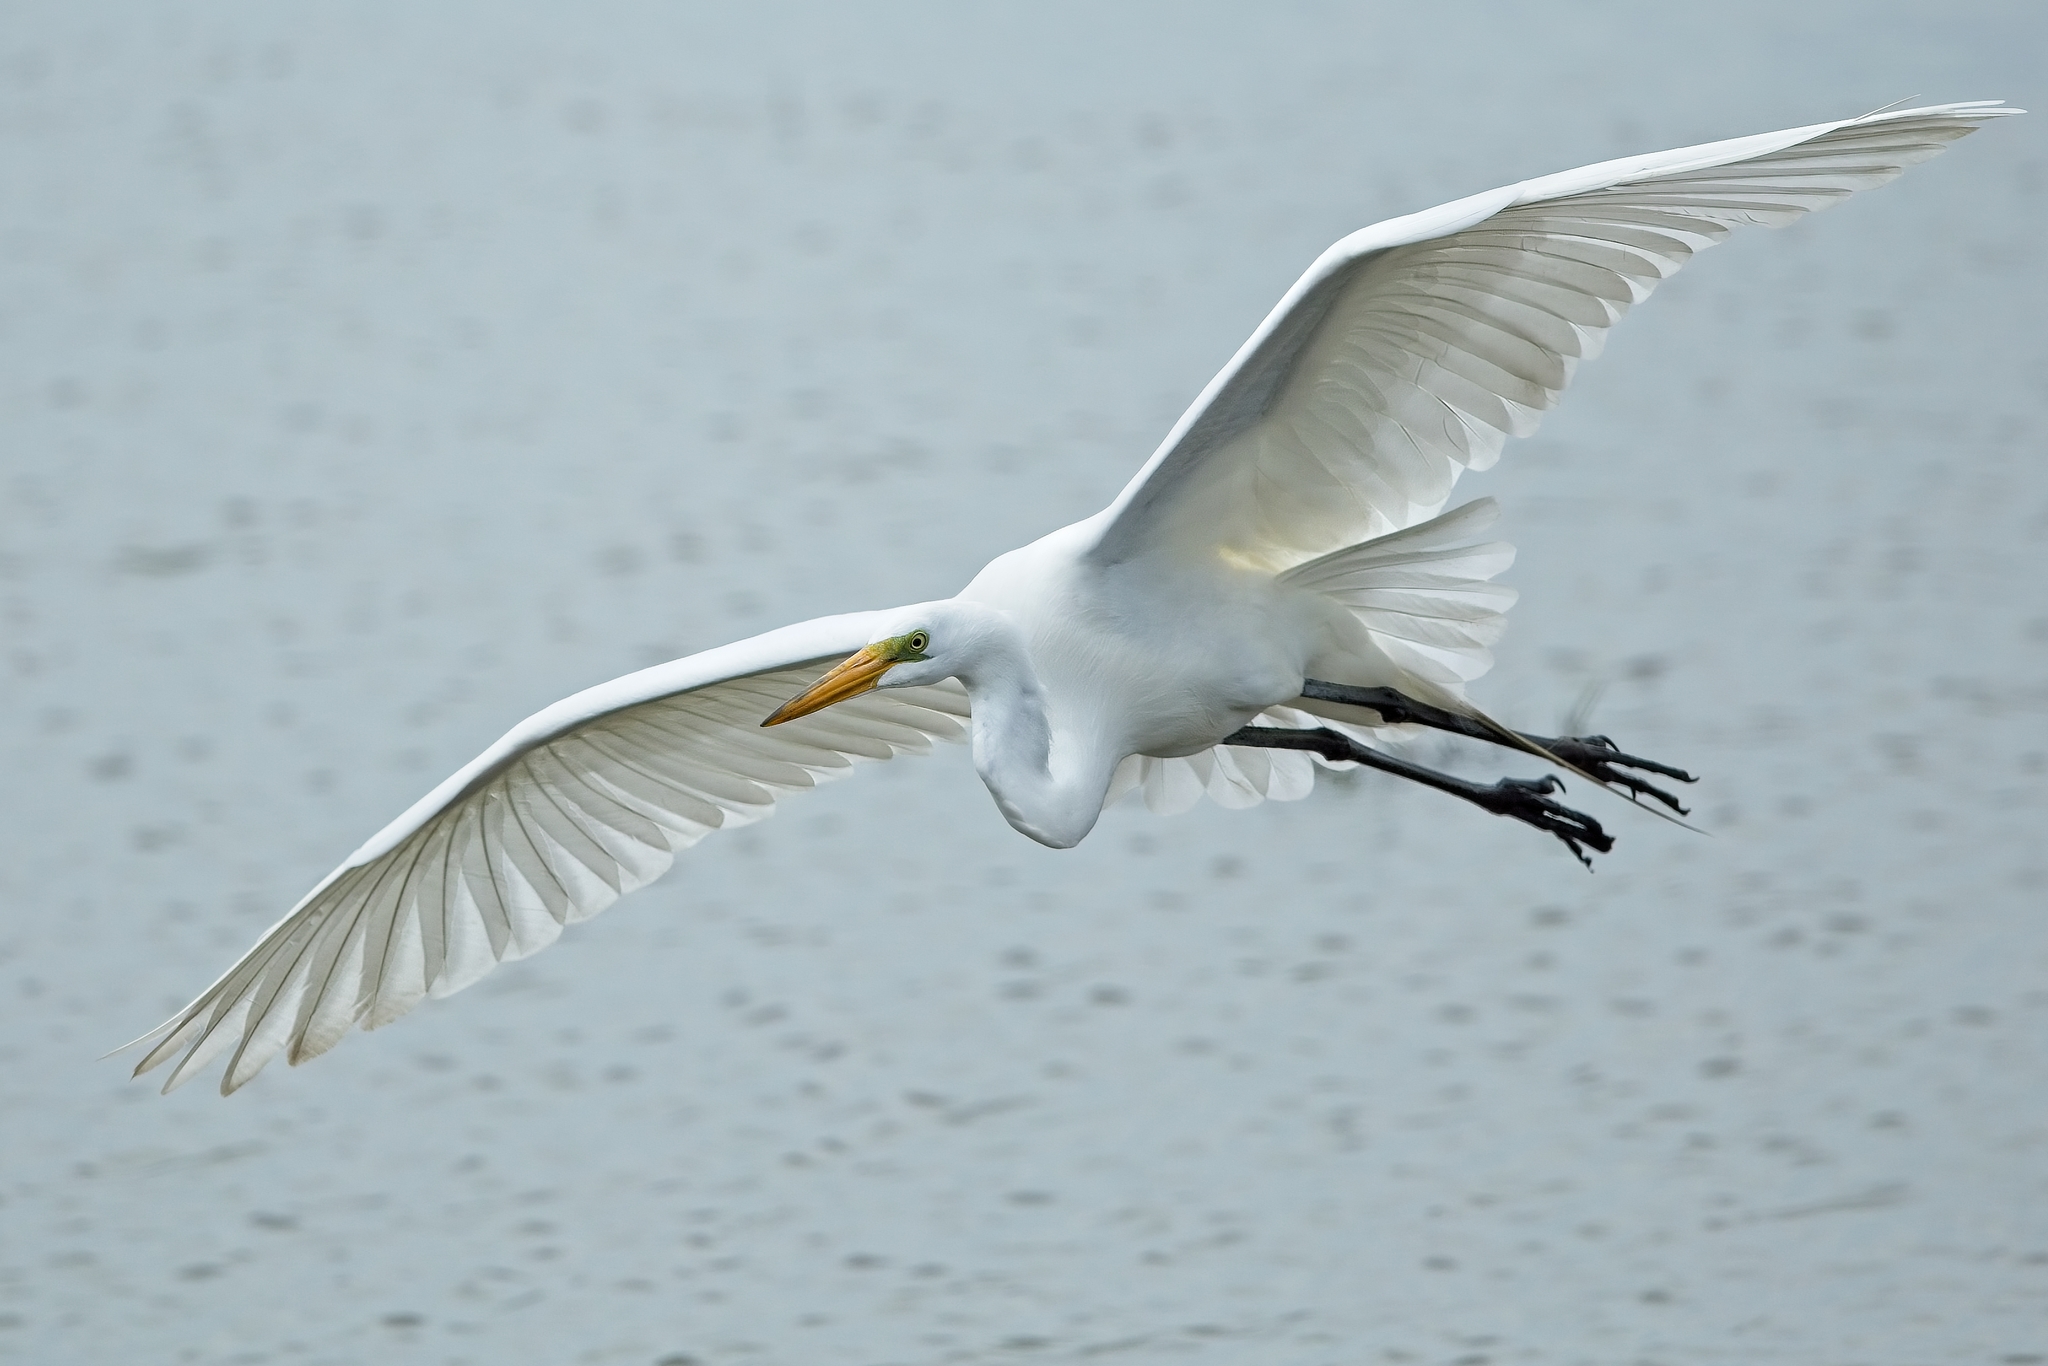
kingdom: Animalia
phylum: Chordata
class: Aves
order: Pelecaniformes
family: Ardeidae
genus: Ardea
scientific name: Ardea alba
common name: Great egret
